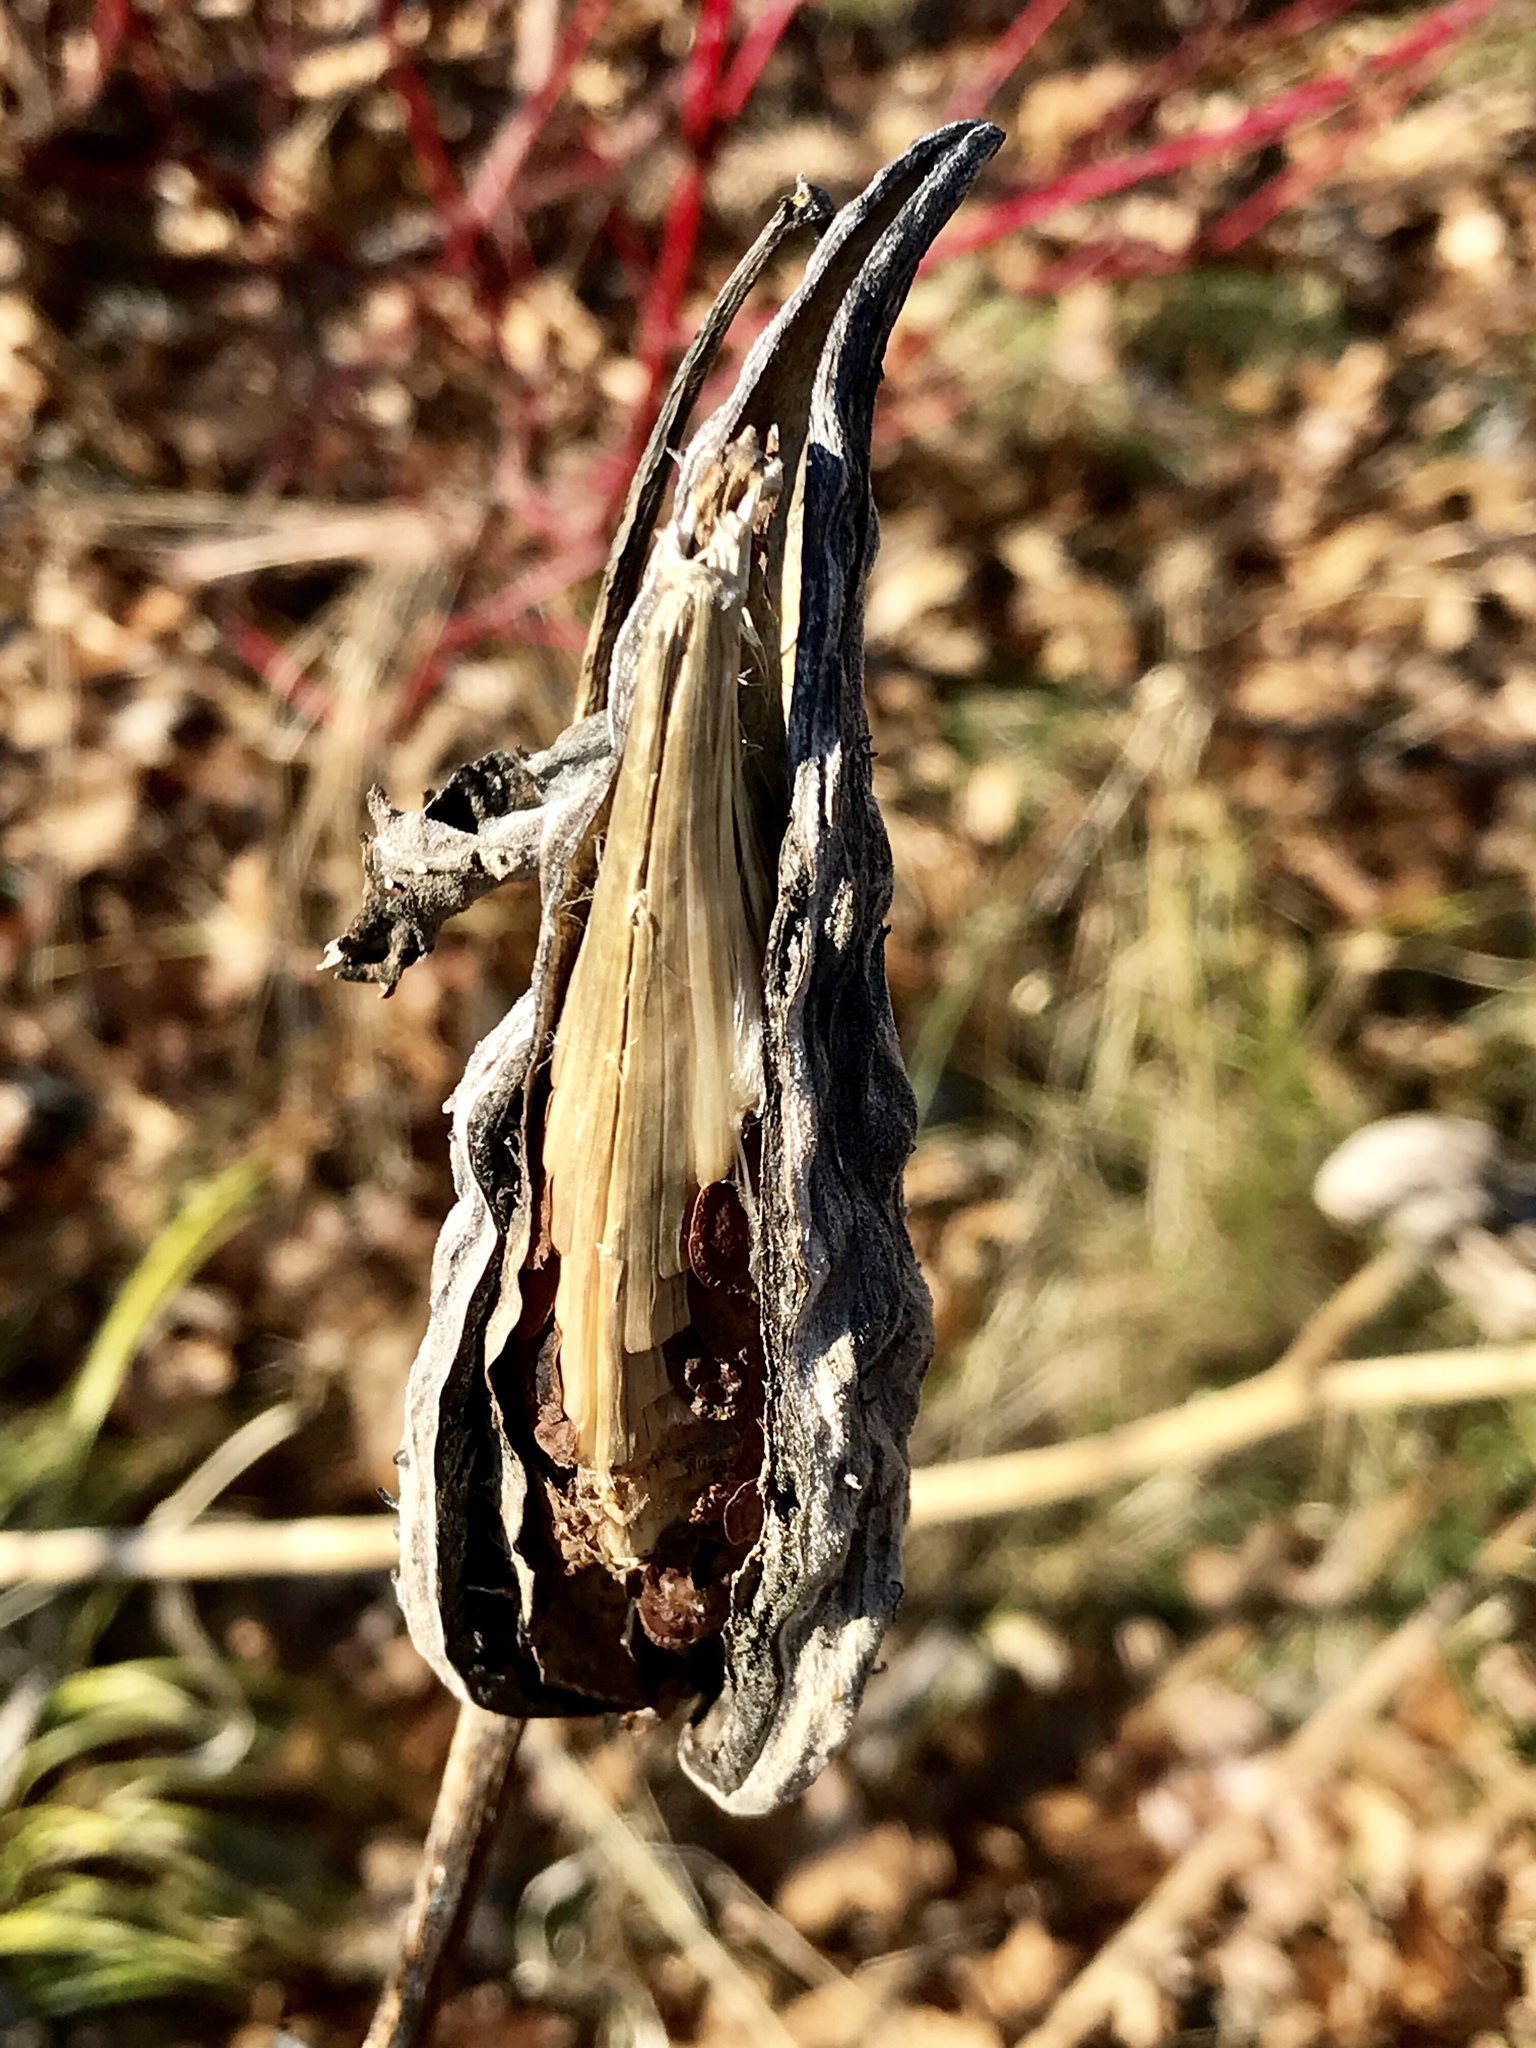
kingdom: Plantae
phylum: Tracheophyta
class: Magnoliopsida
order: Gentianales
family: Apocynaceae
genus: Asclepias
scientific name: Asclepias syriaca
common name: Common milkweed
